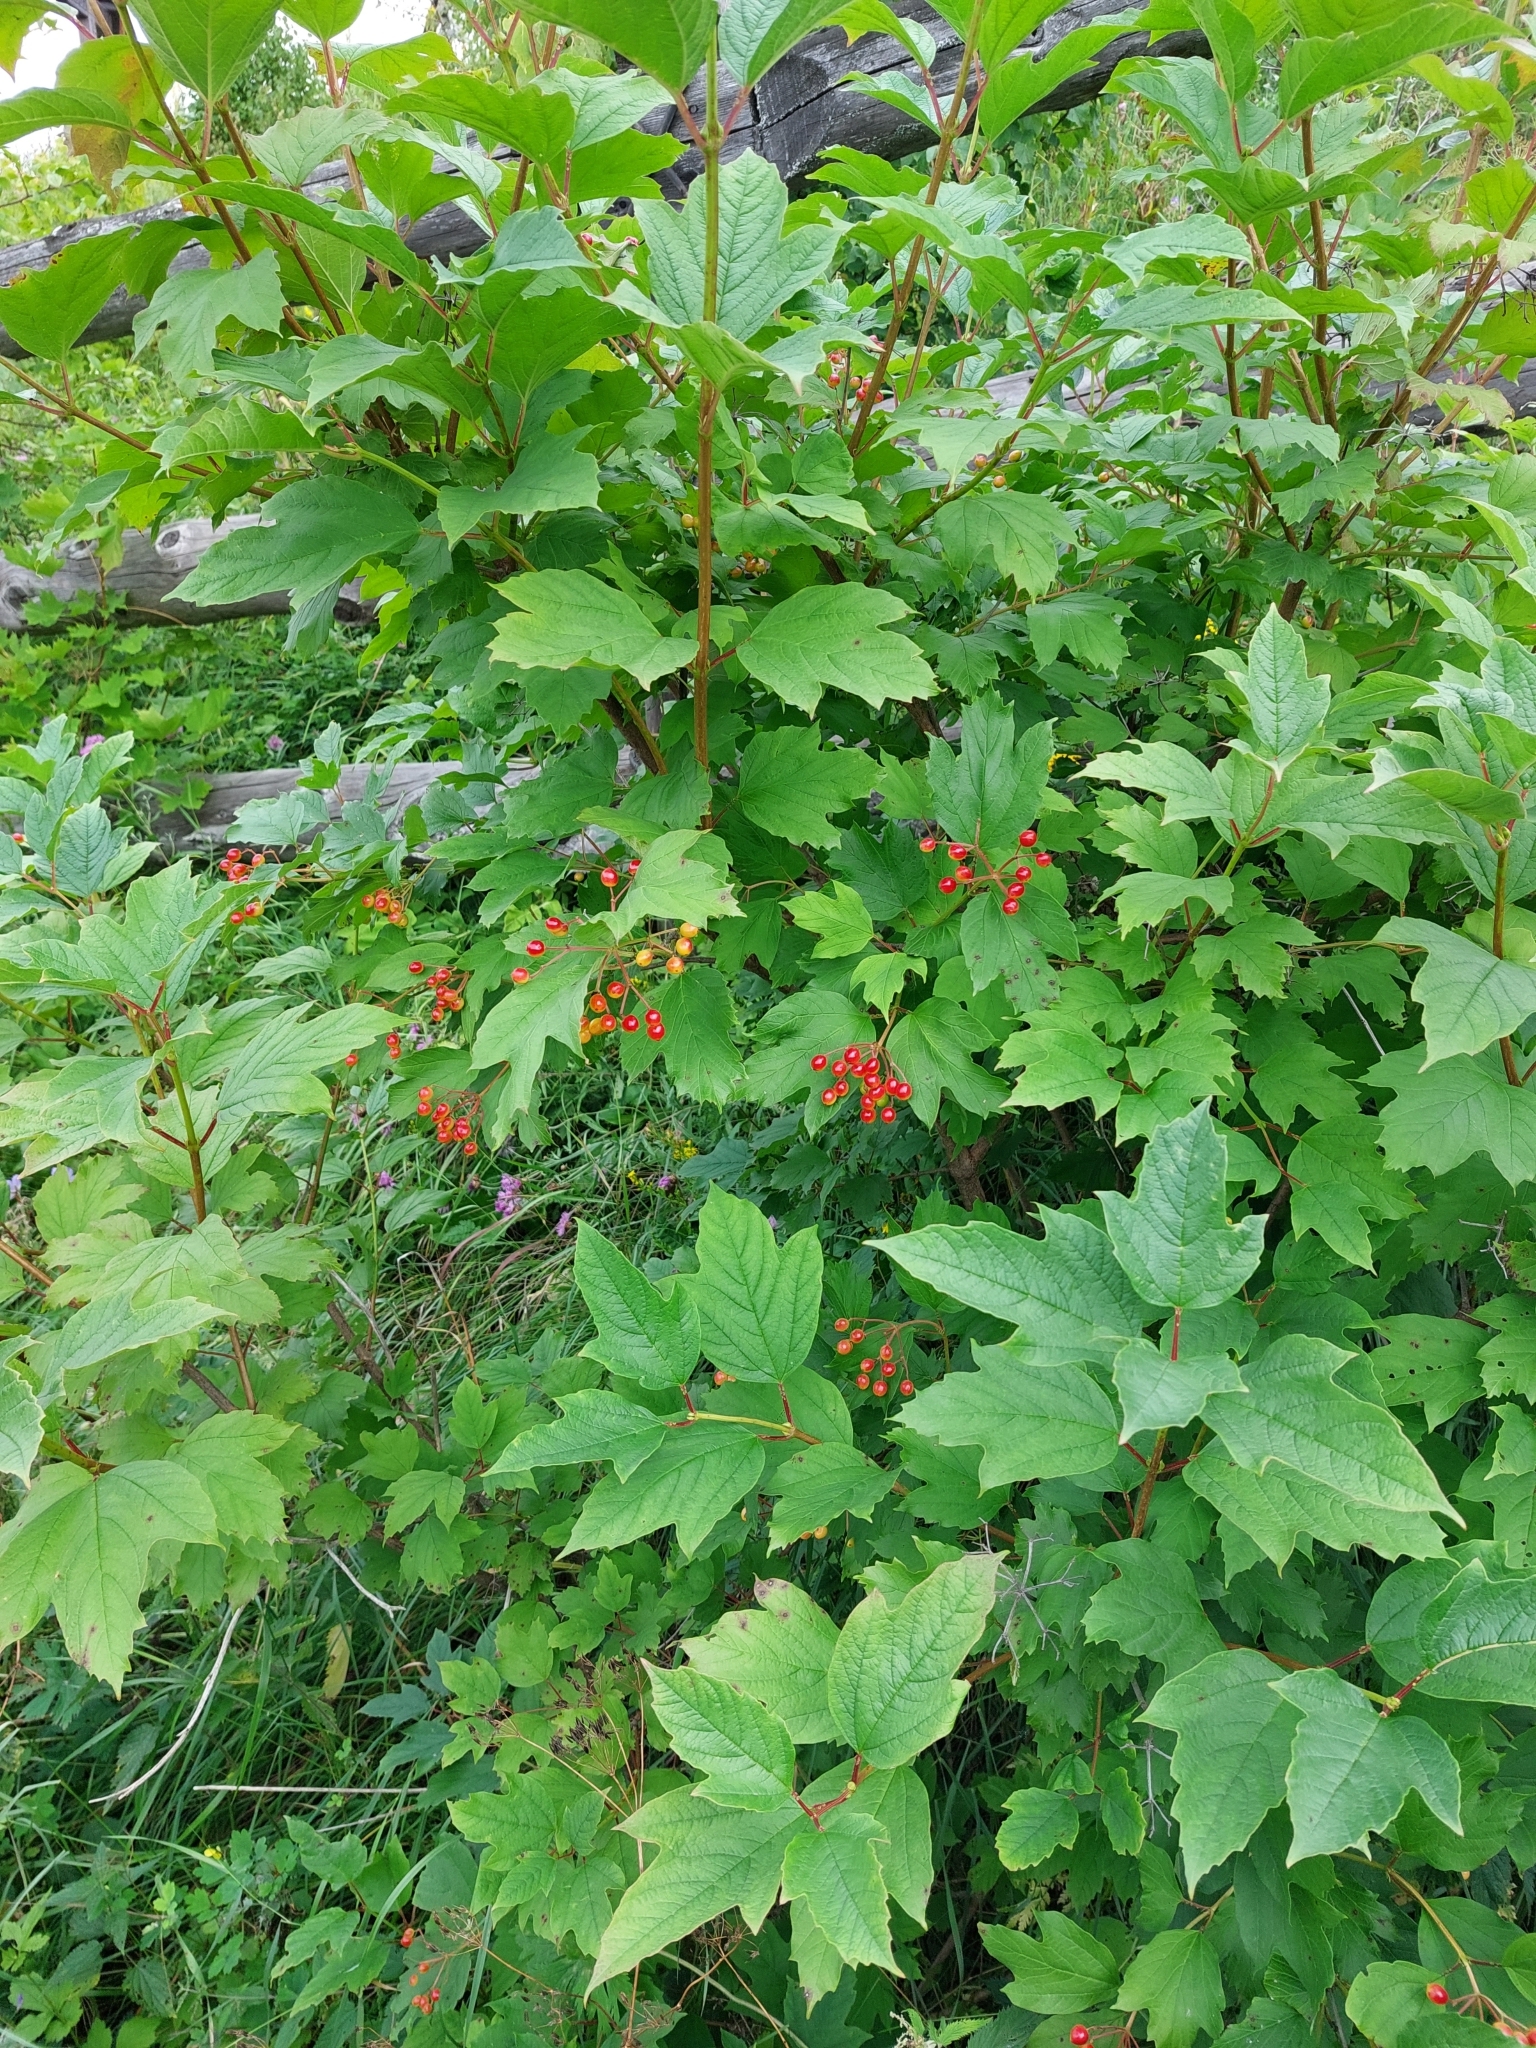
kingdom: Plantae
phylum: Tracheophyta
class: Magnoliopsida
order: Dipsacales
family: Viburnaceae
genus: Viburnum
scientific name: Viburnum opulus
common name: Guelder-rose
